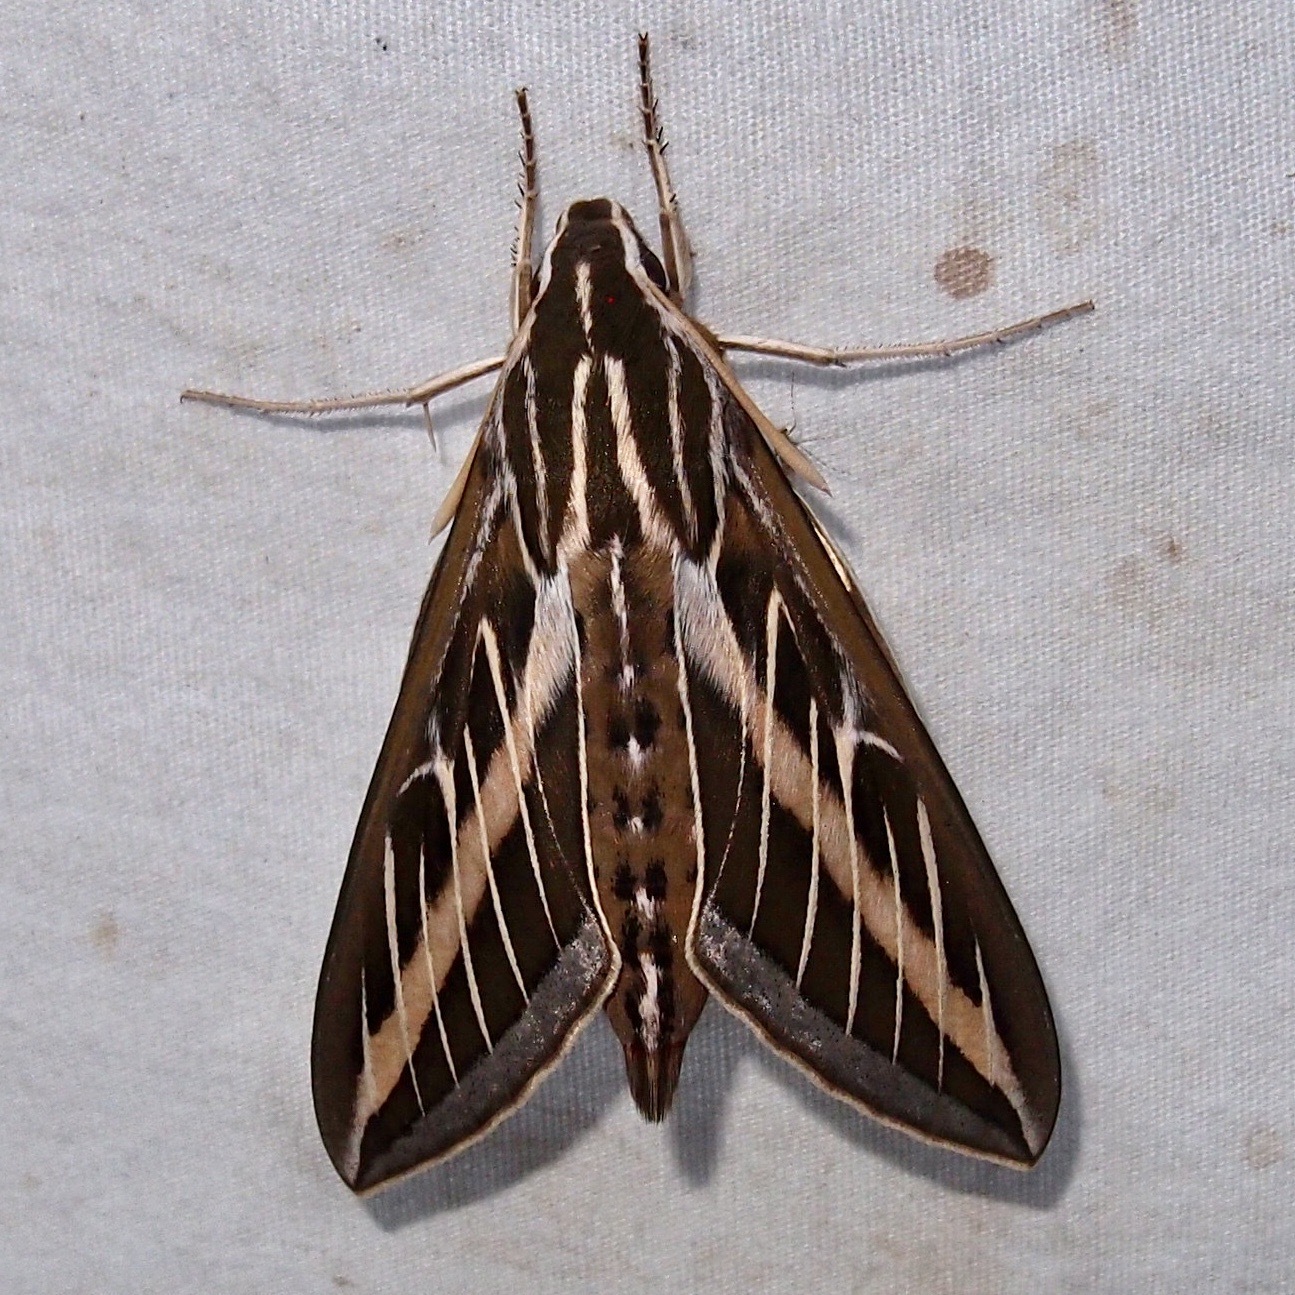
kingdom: Animalia
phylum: Arthropoda
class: Insecta
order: Lepidoptera
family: Sphingidae
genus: Hyles
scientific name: Hyles lineata
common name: White-lined sphinx
